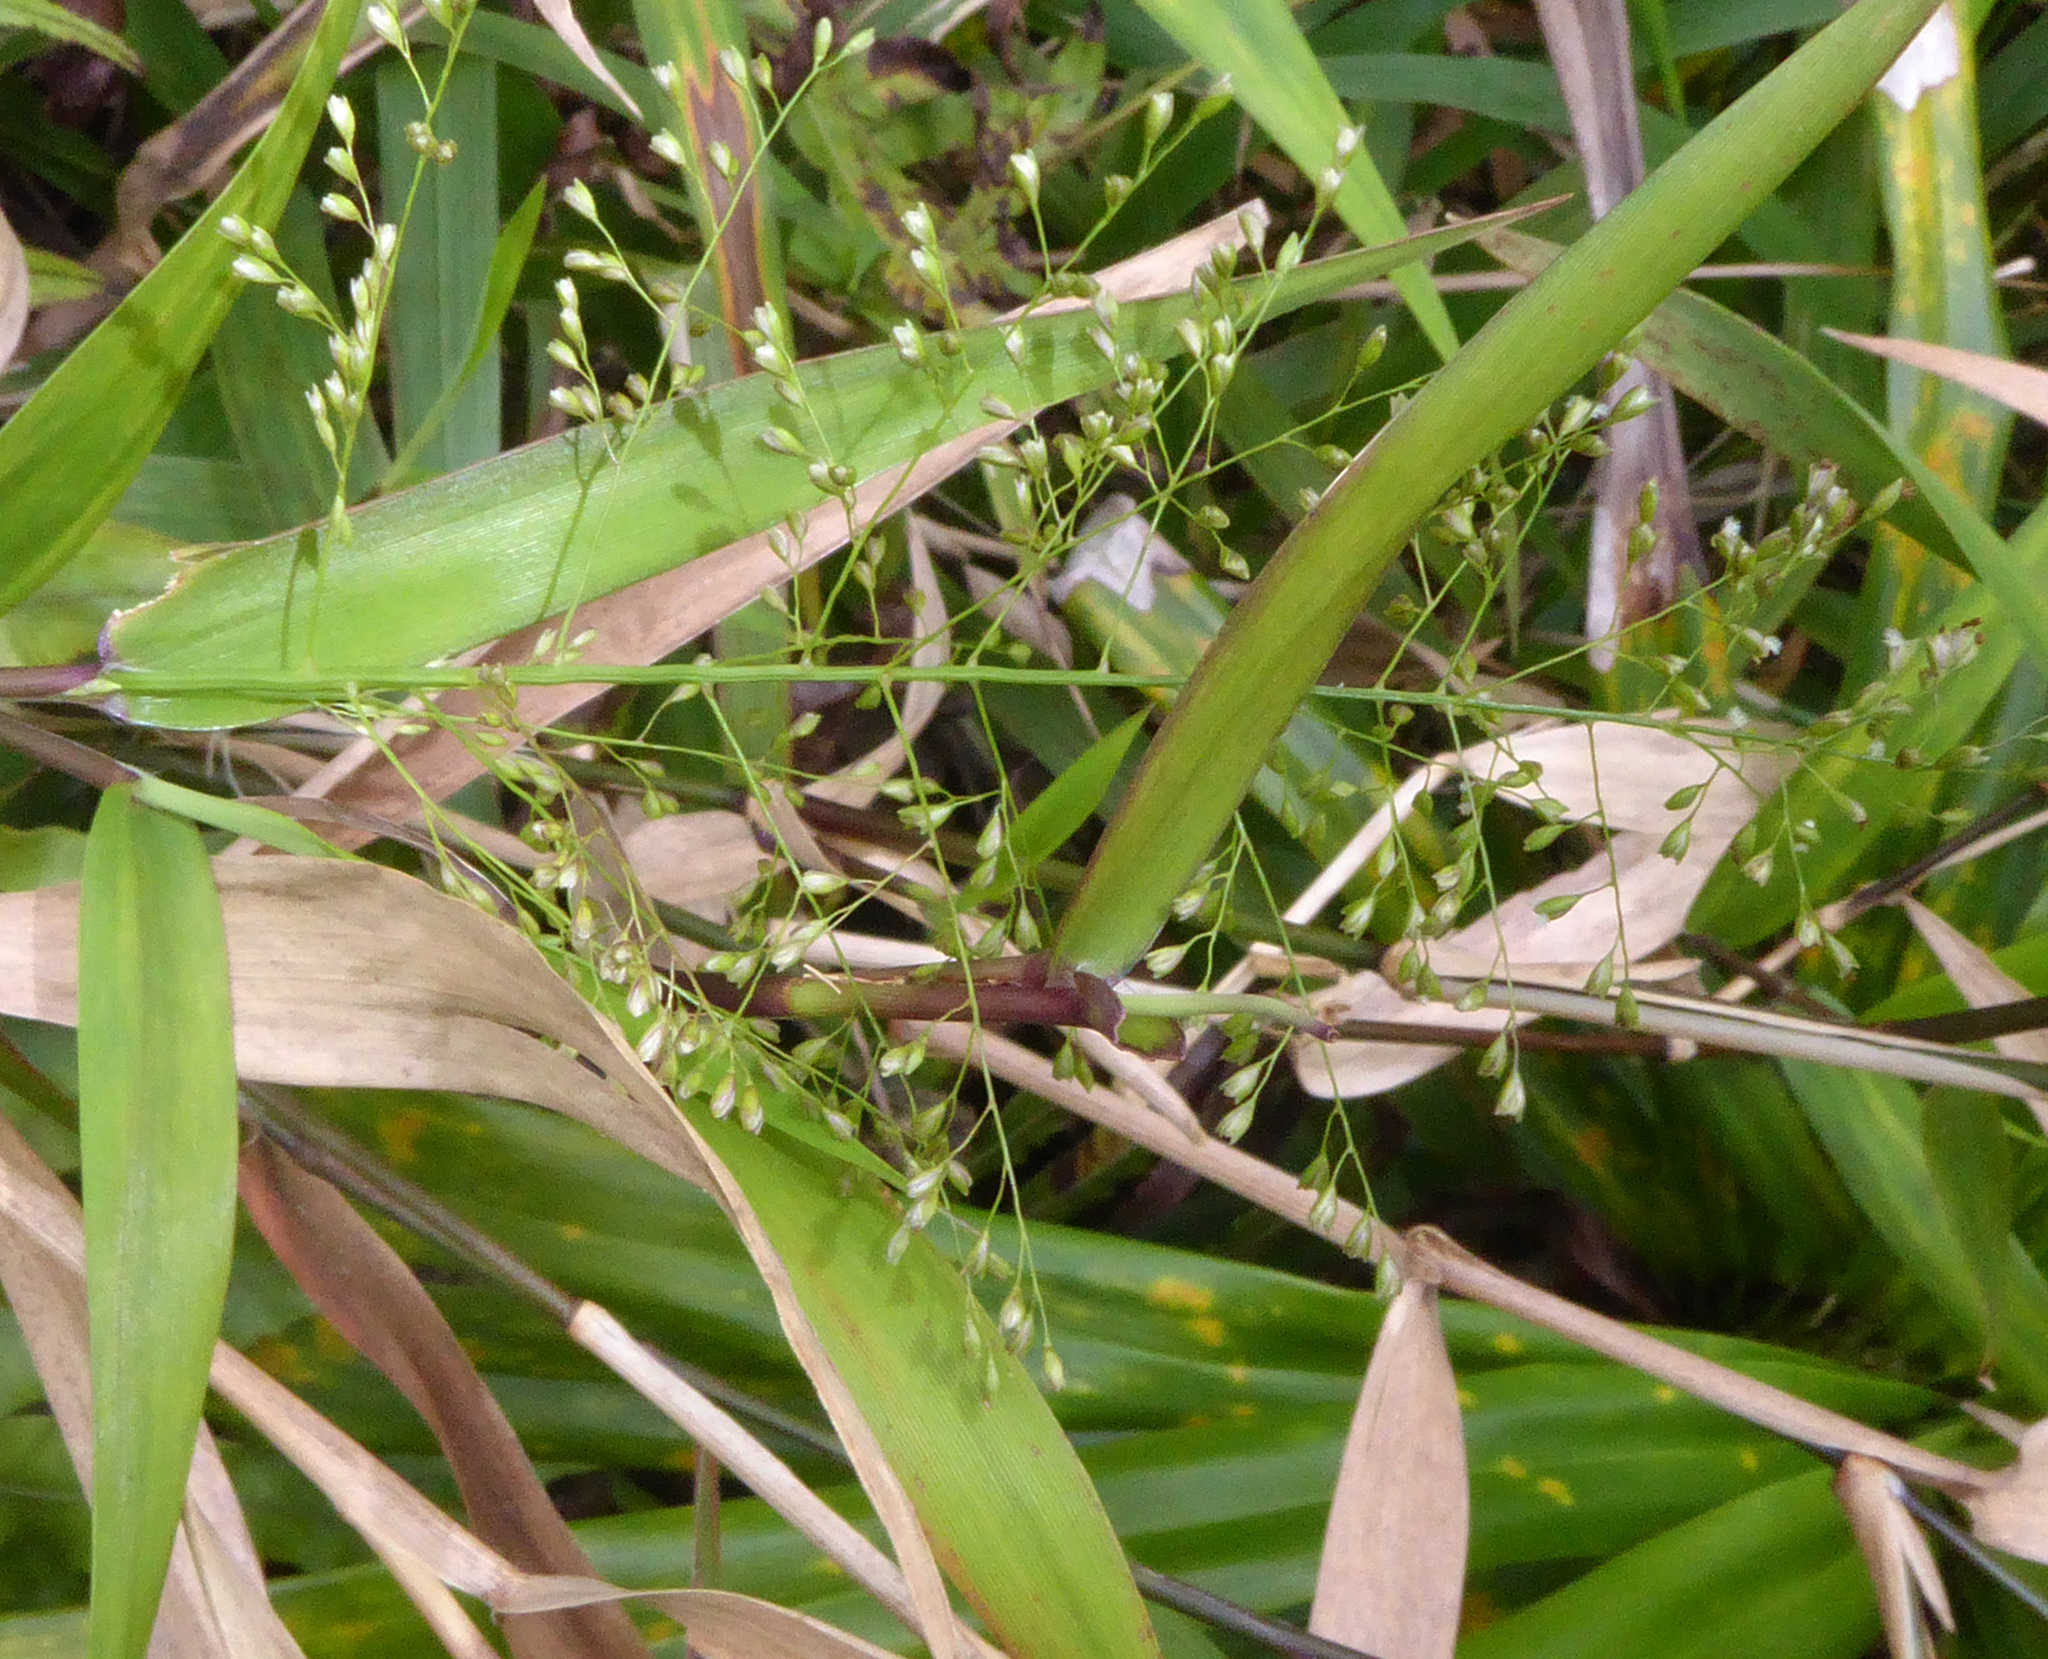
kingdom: Plantae
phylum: Tracheophyta
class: Liliopsida
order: Poales
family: Poaceae
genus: Isachne
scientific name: Isachne distichophylla
